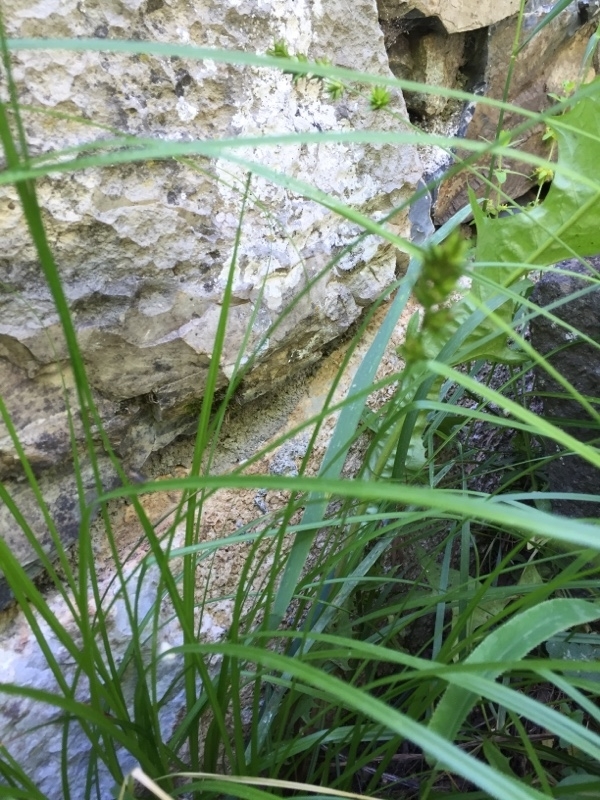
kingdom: Plantae
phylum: Tracheophyta
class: Liliopsida
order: Poales
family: Cyperaceae
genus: Carex
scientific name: Carex leersii
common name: Leers' sedge
